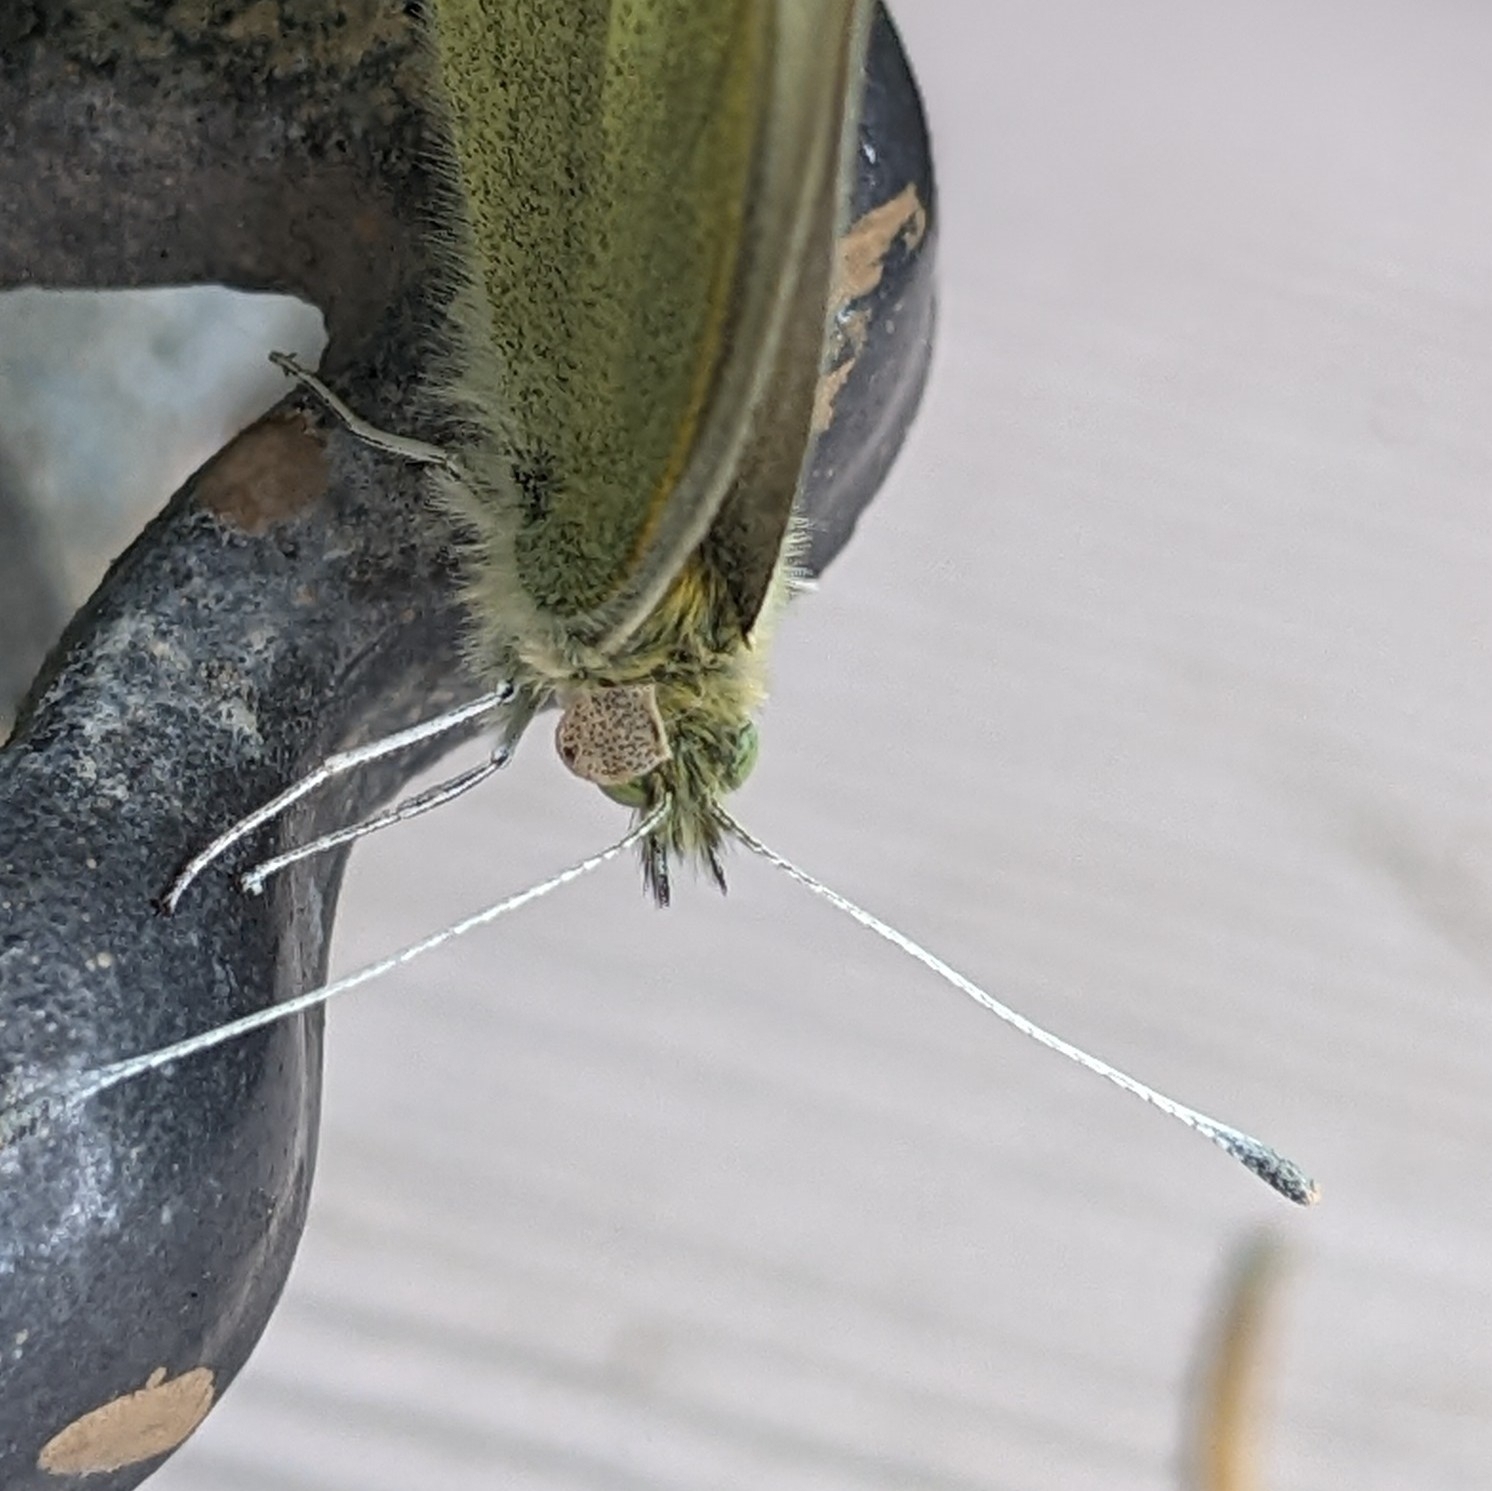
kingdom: Animalia
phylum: Arthropoda
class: Insecta
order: Lepidoptera
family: Pieridae
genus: Pieris
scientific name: Pieris rapae
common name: Small white
